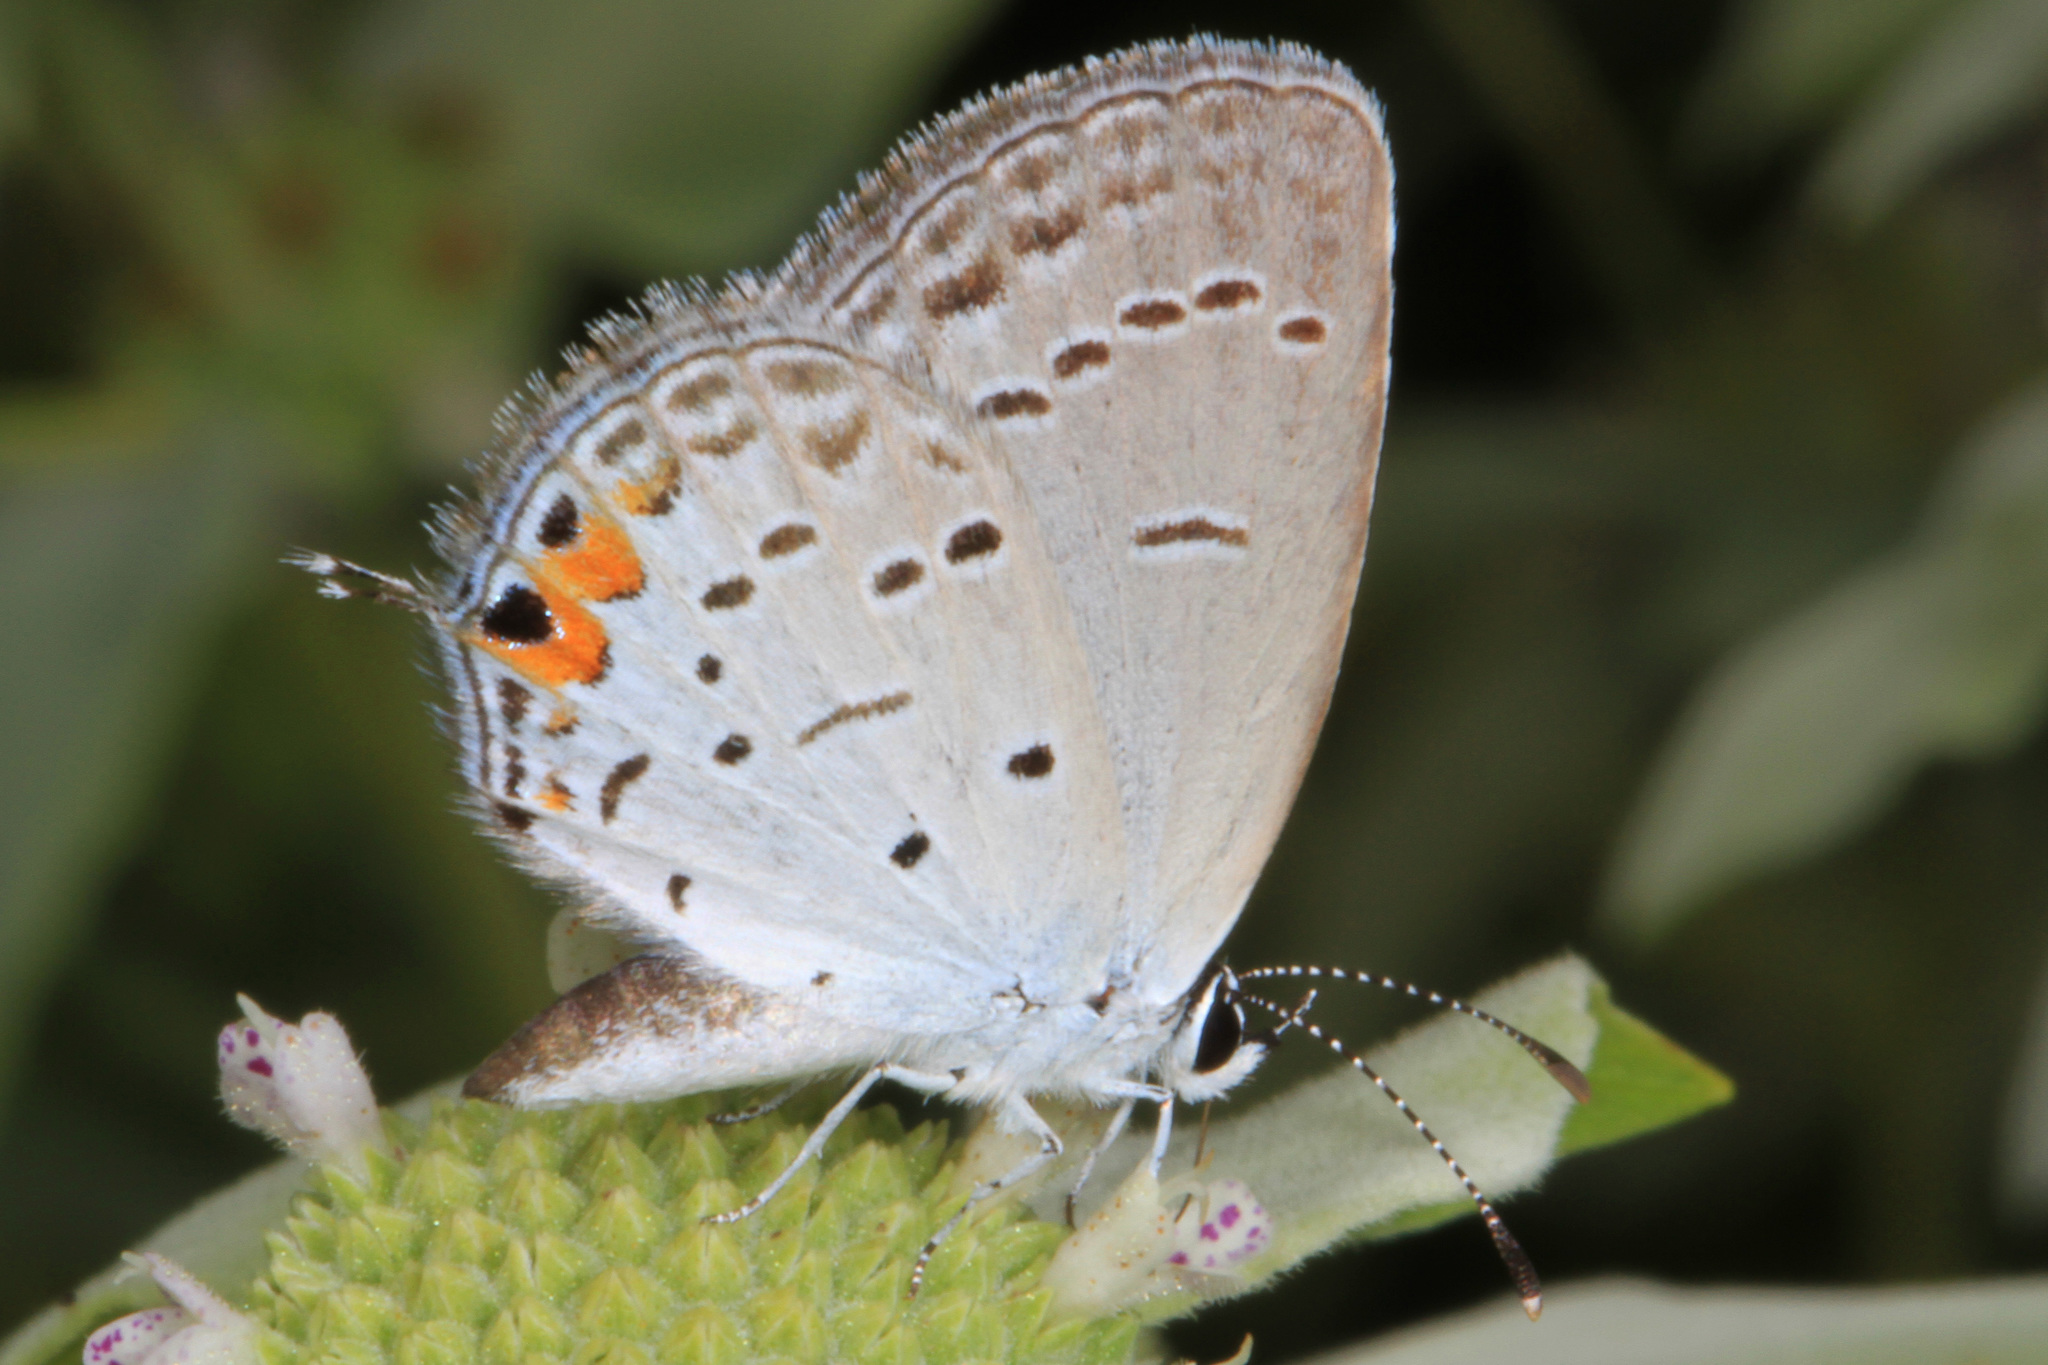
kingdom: Animalia
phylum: Arthropoda
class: Insecta
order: Lepidoptera
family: Lycaenidae
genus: Elkalyce
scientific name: Elkalyce comyntas
